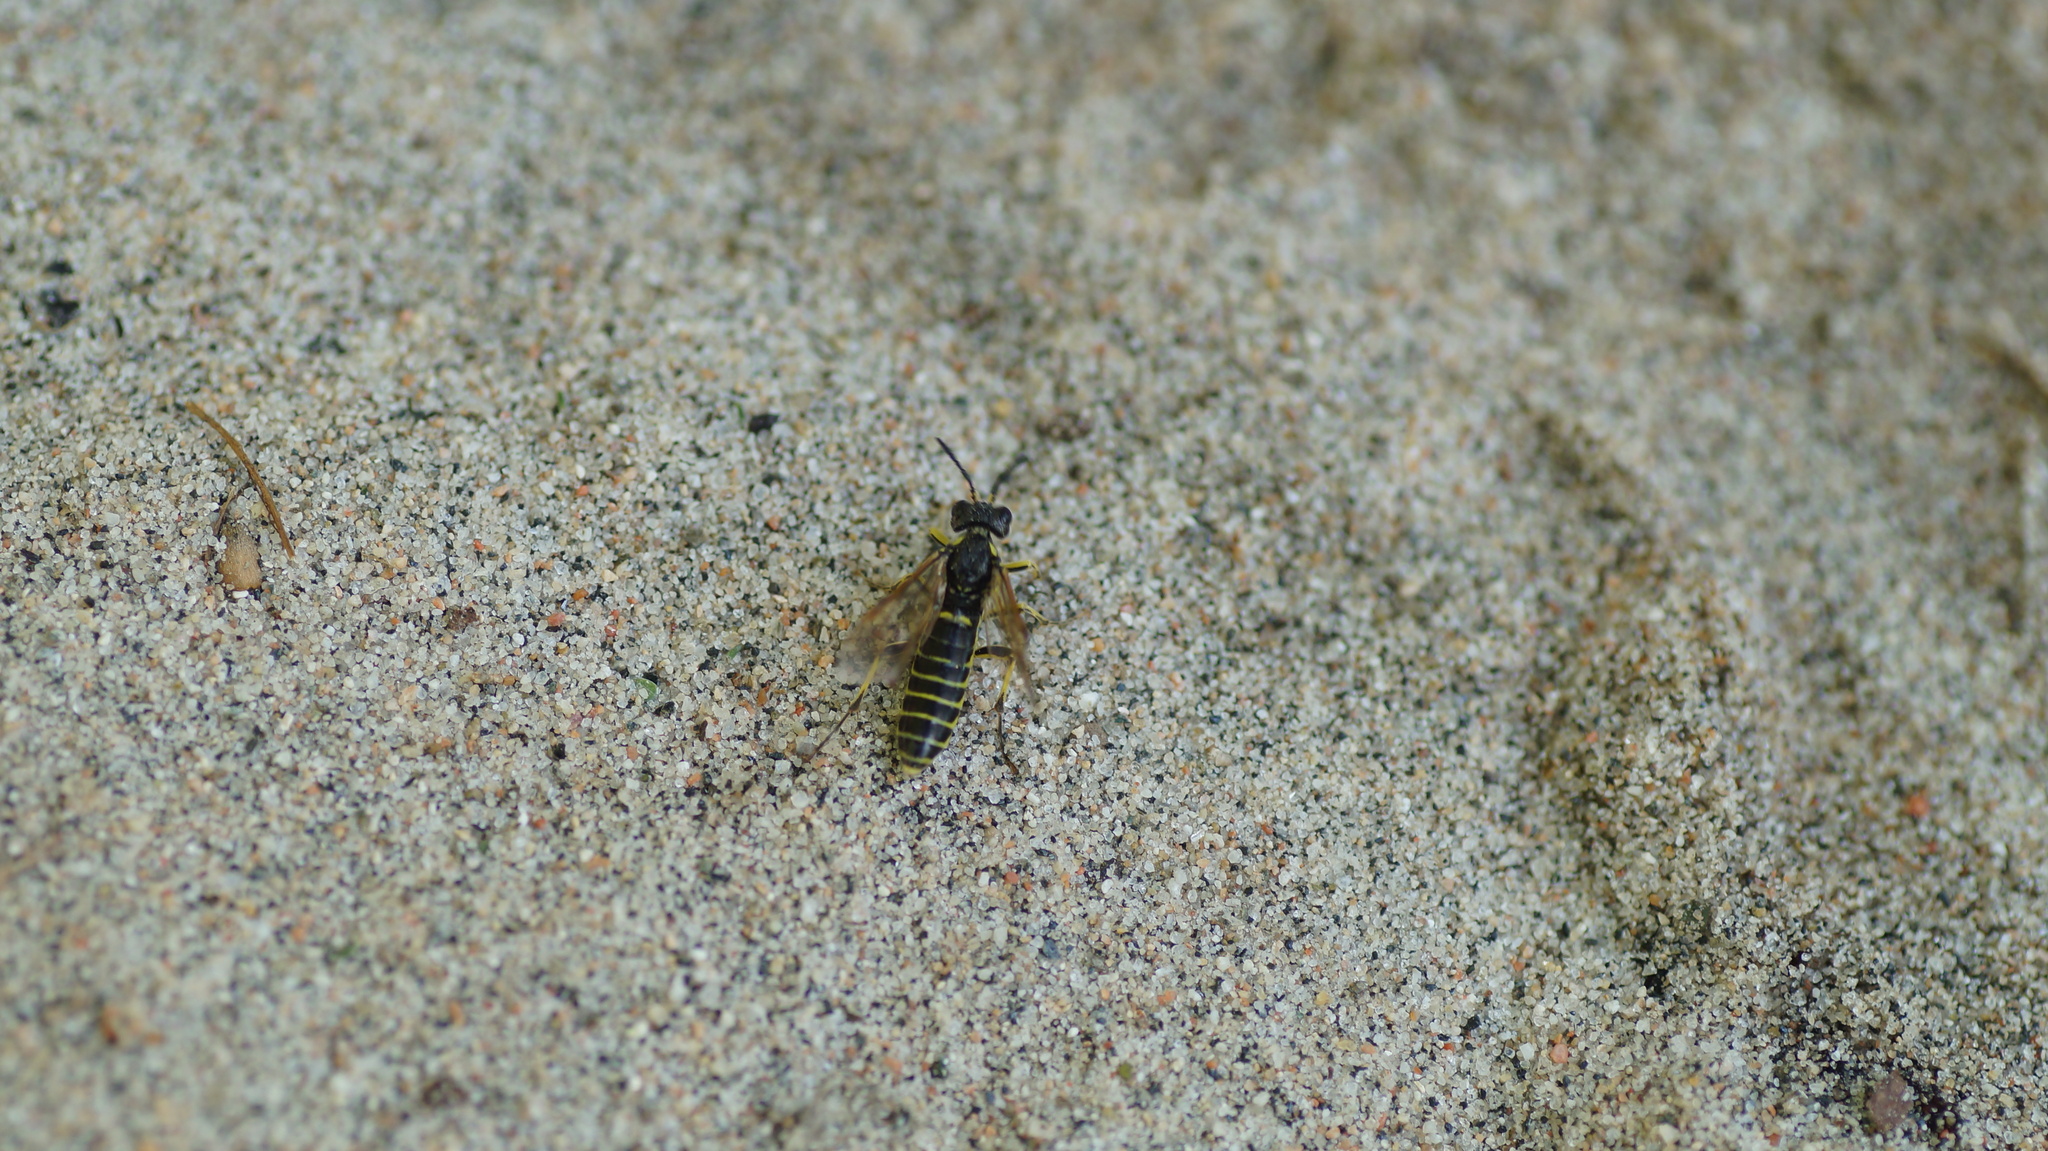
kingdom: Animalia
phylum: Arthropoda
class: Insecta
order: Hymenoptera
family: Tenthredinidae
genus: Tenthredo
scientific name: Tenthredo
